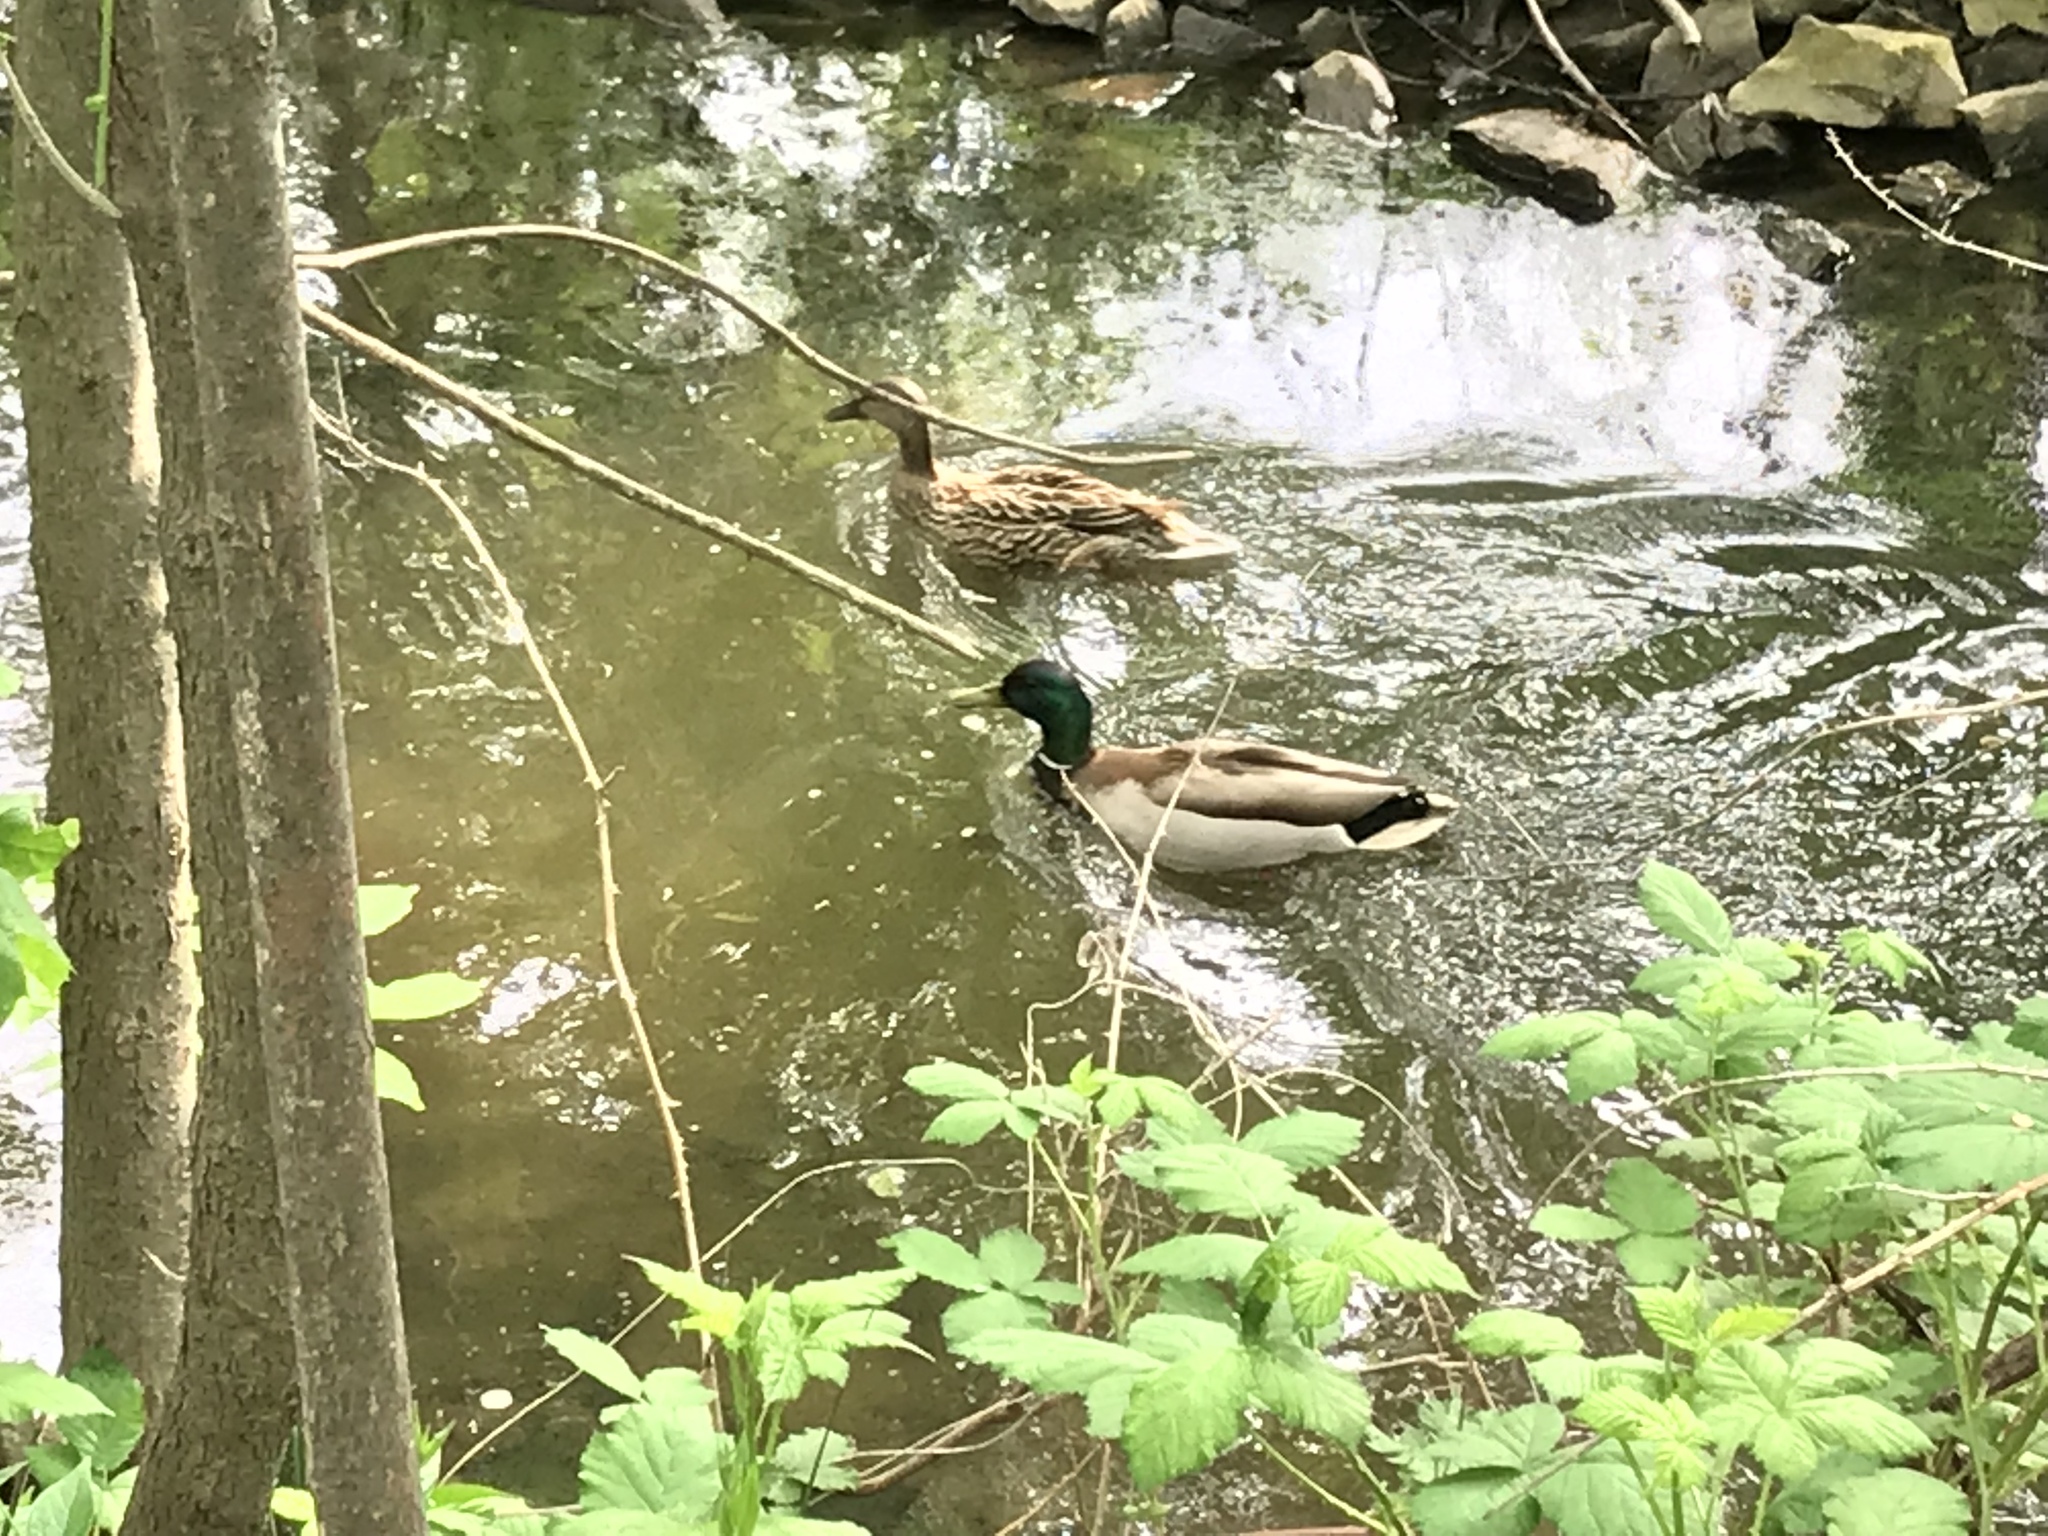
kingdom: Animalia
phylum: Chordata
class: Aves
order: Anseriformes
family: Anatidae
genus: Anas
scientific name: Anas platyrhynchos
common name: Mallard
